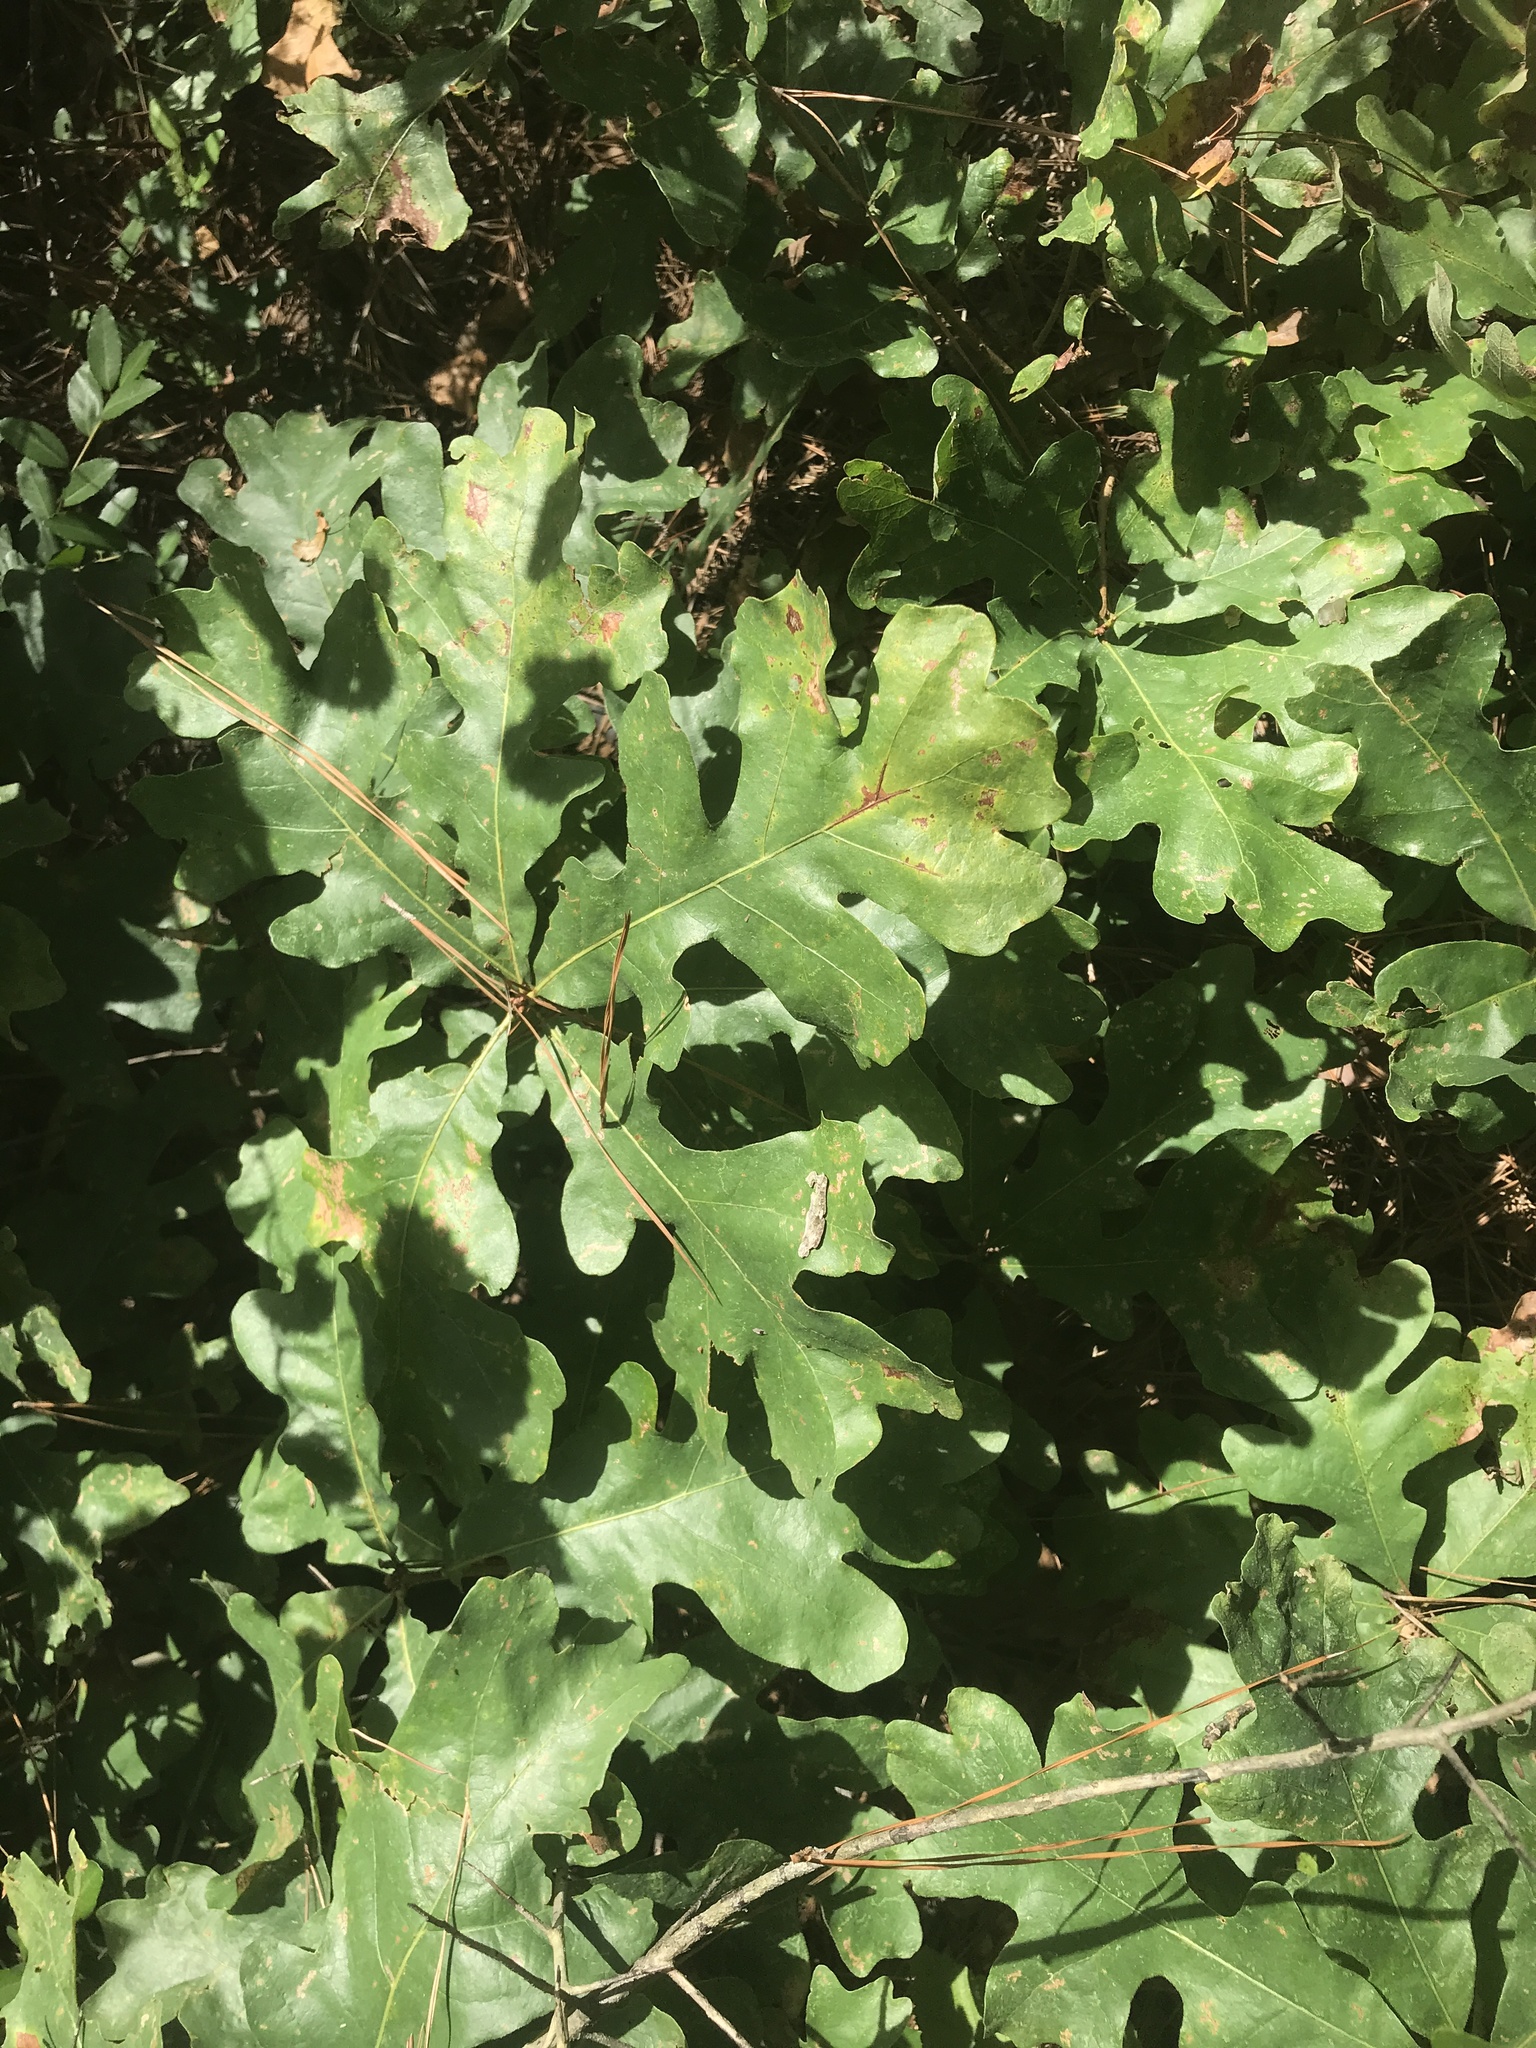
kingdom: Plantae
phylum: Tracheophyta
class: Magnoliopsida
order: Fagales
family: Fagaceae
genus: Quercus
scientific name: Quercus margaretiae
